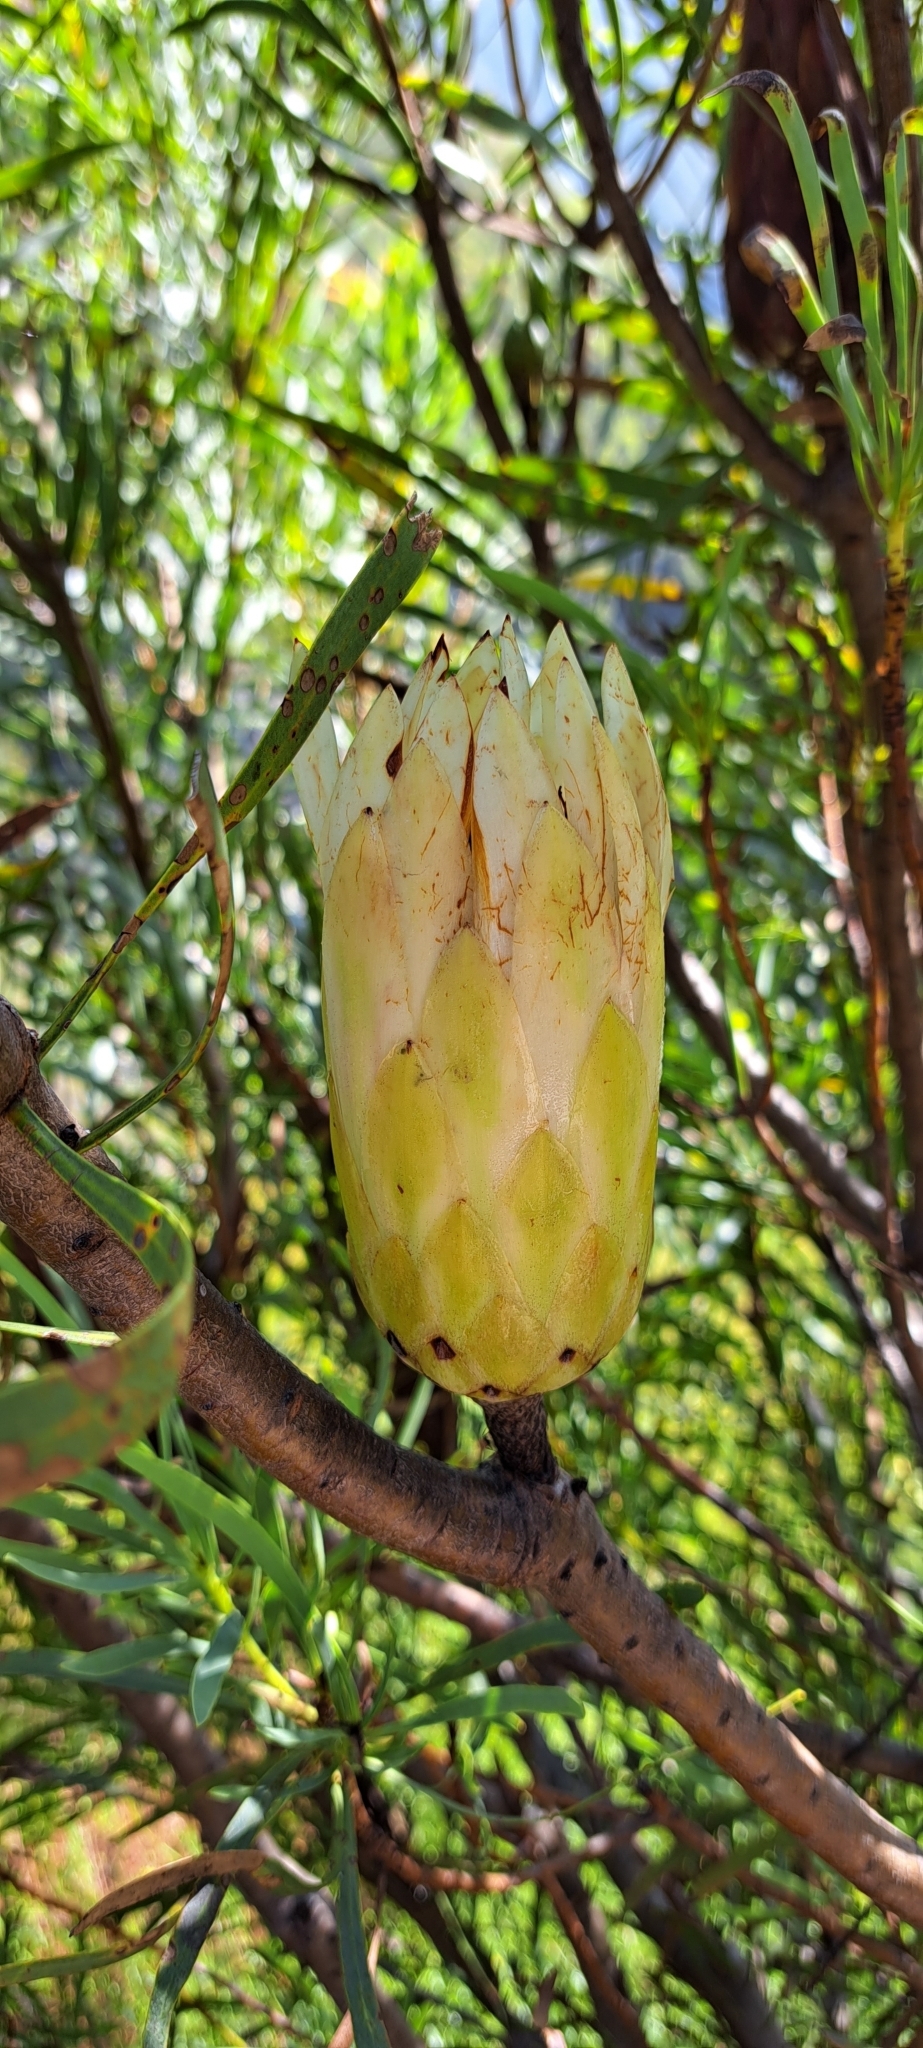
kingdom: Plantae
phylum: Tracheophyta
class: Magnoliopsida
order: Proteales
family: Proteaceae
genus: Protea
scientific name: Protea repens
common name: Sugarbush
